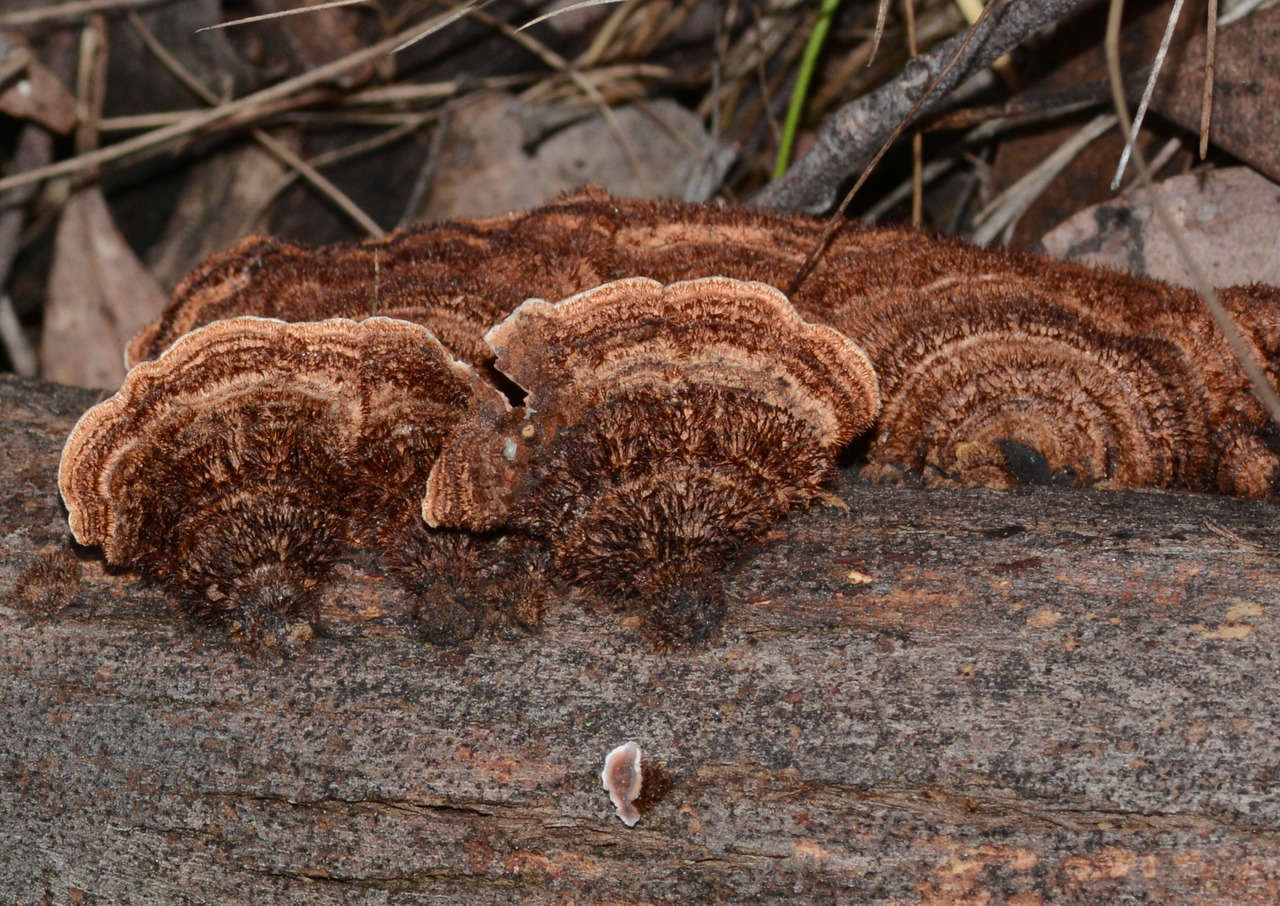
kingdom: Fungi
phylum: Basidiomycota
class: Agaricomycetes
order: Russulales
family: Stereaceae
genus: Xylobolus
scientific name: Xylobolus illudens
